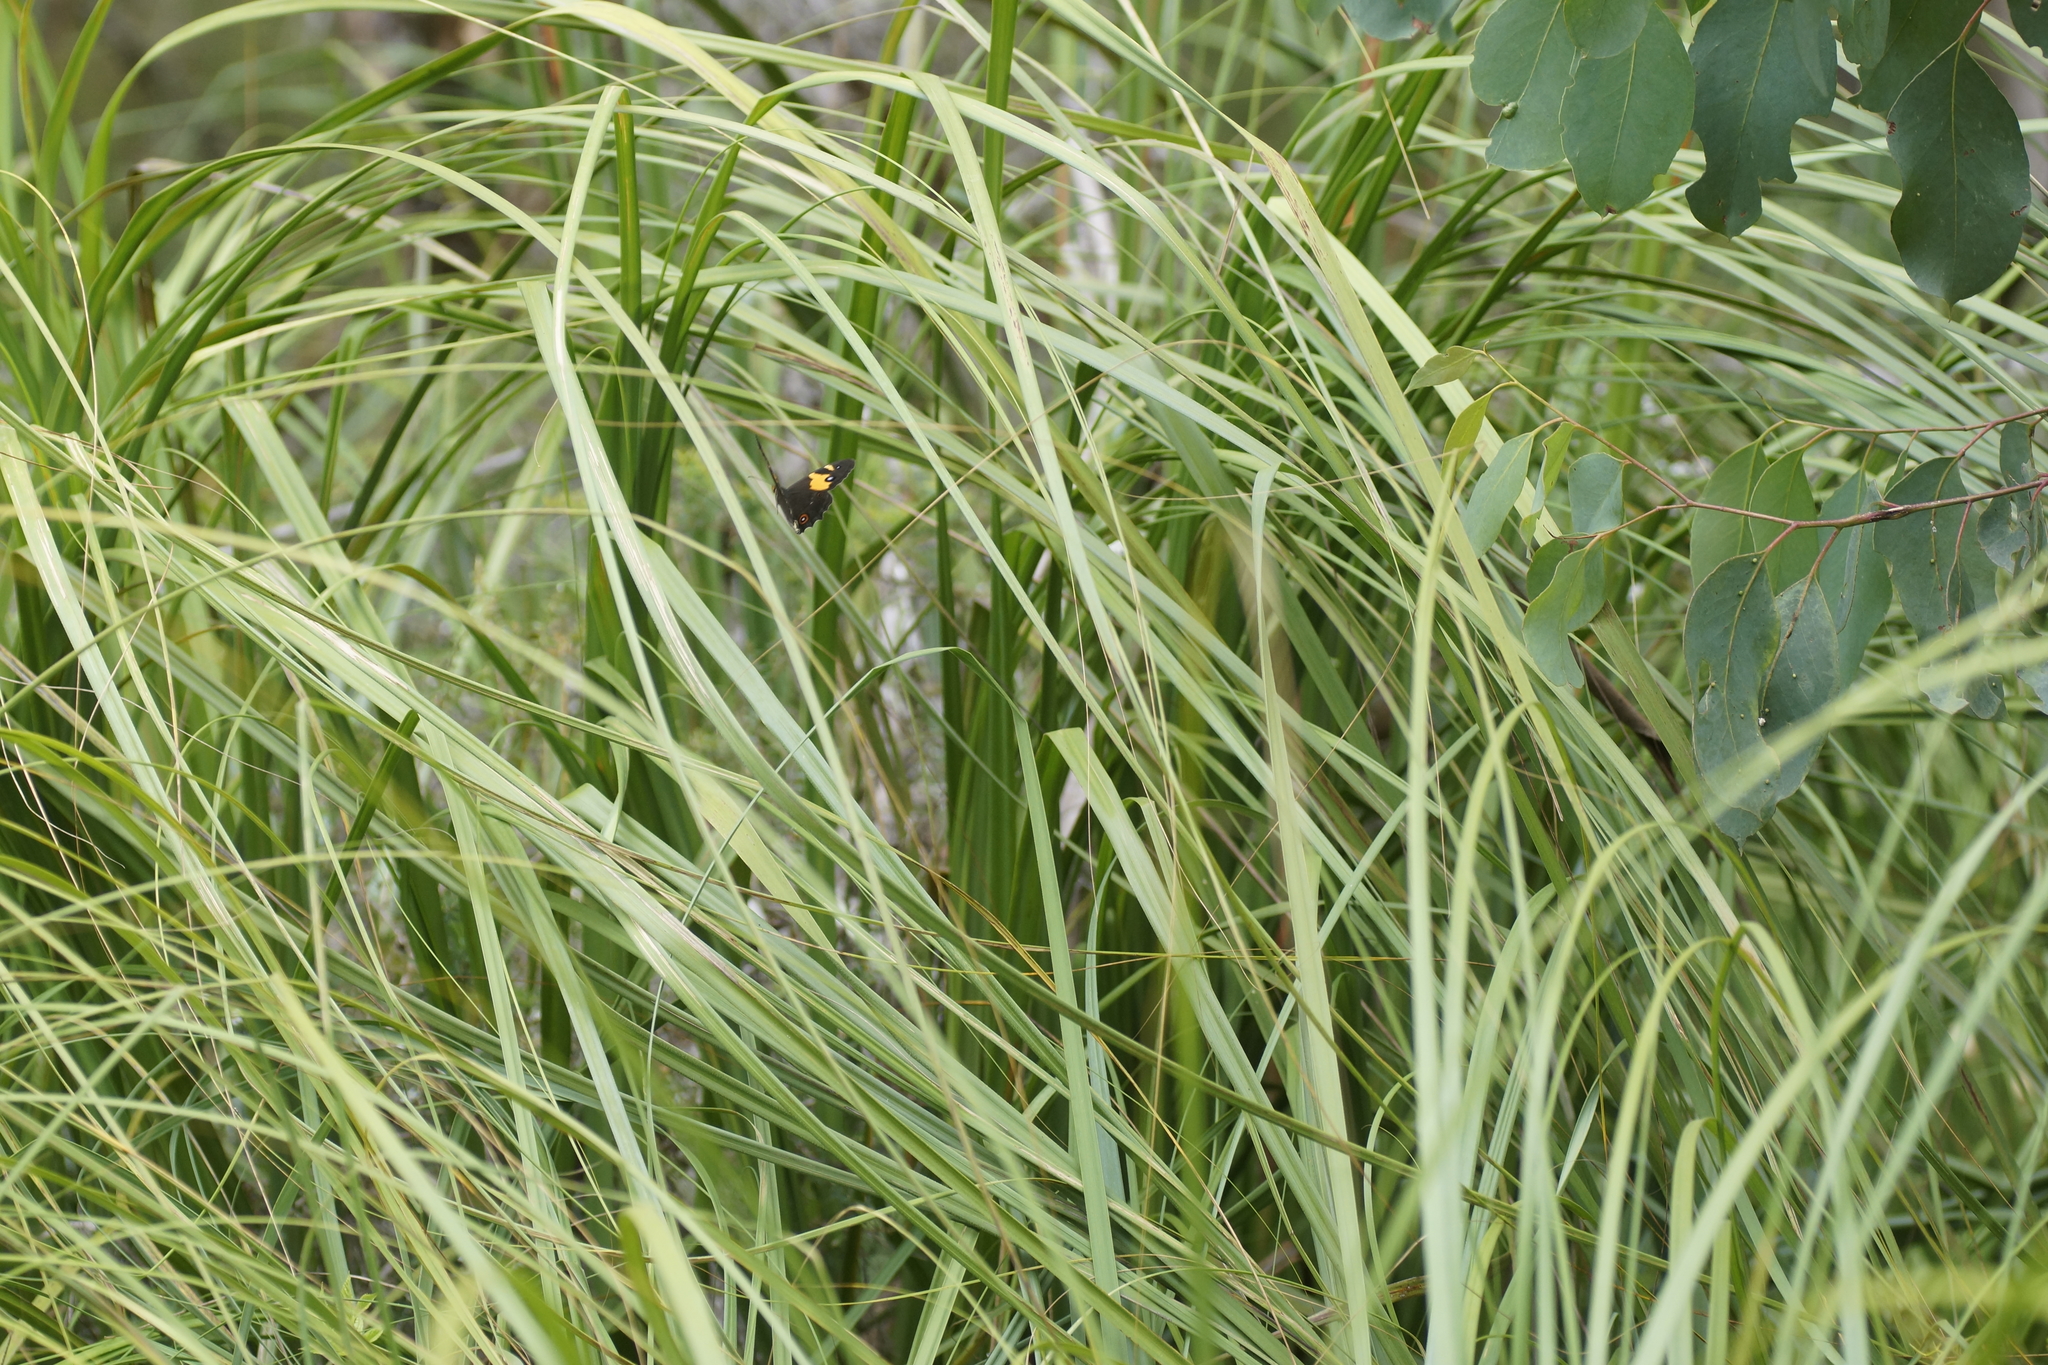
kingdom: Animalia
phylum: Arthropoda
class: Insecta
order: Lepidoptera
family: Nymphalidae
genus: Tisiphone
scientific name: Tisiphone abeona
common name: Swordgrass brown
